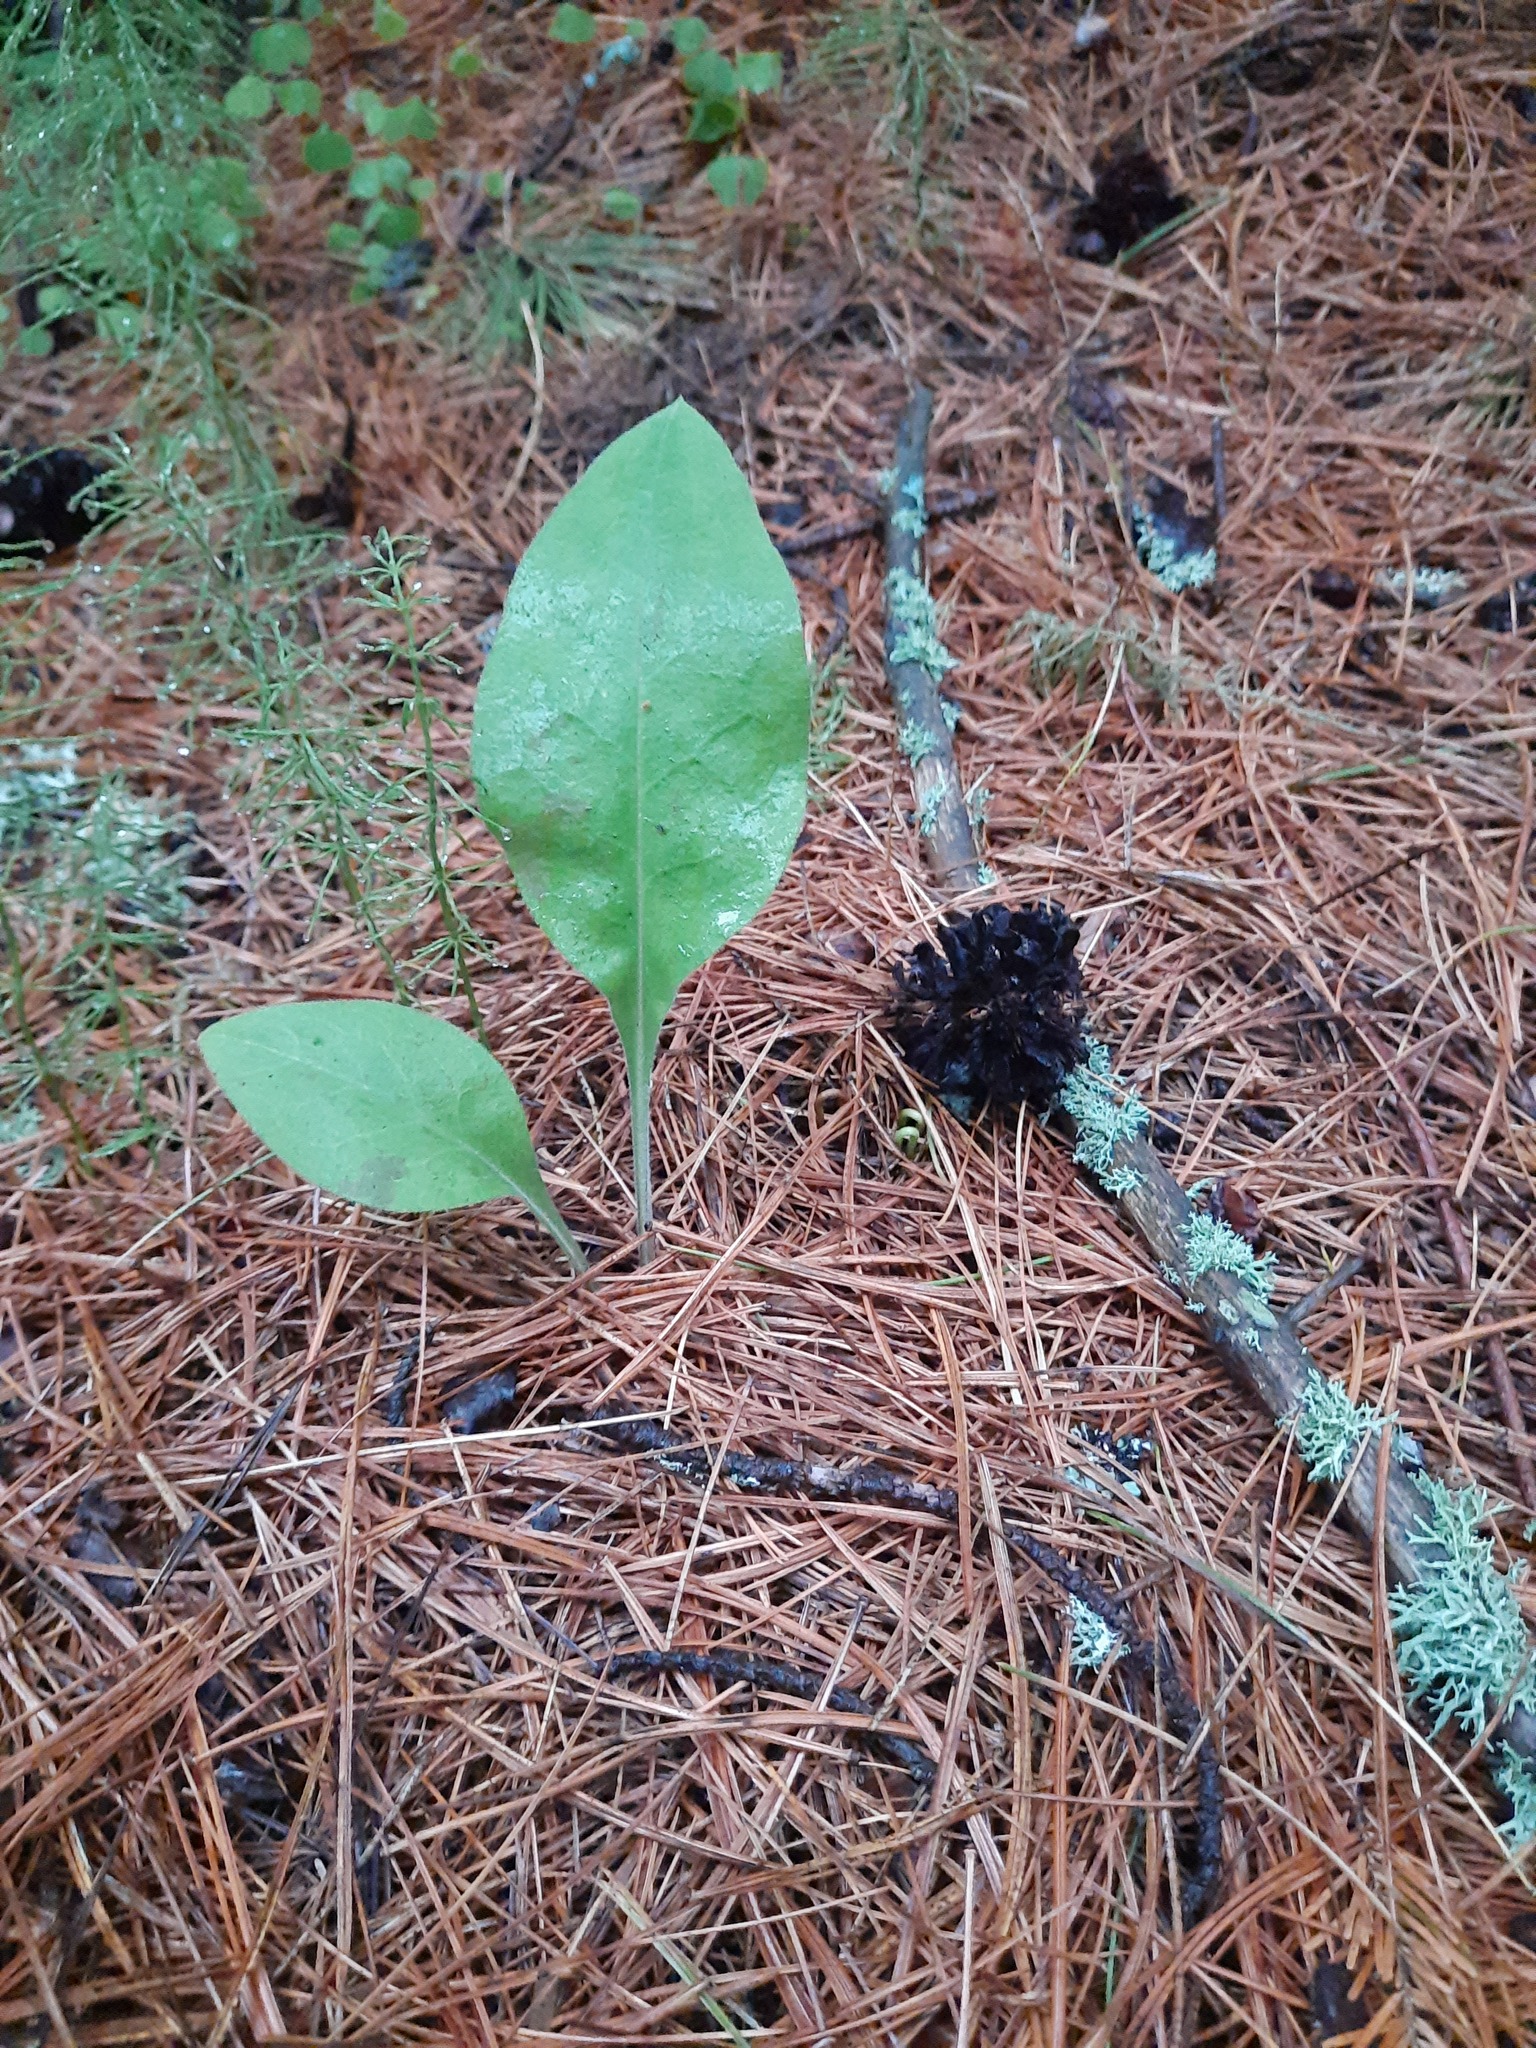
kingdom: Plantae
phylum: Tracheophyta
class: Magnoliopsida
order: Boraginales
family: Boraginaceae
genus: Pulmonaria
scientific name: Pulmonaria mollis
